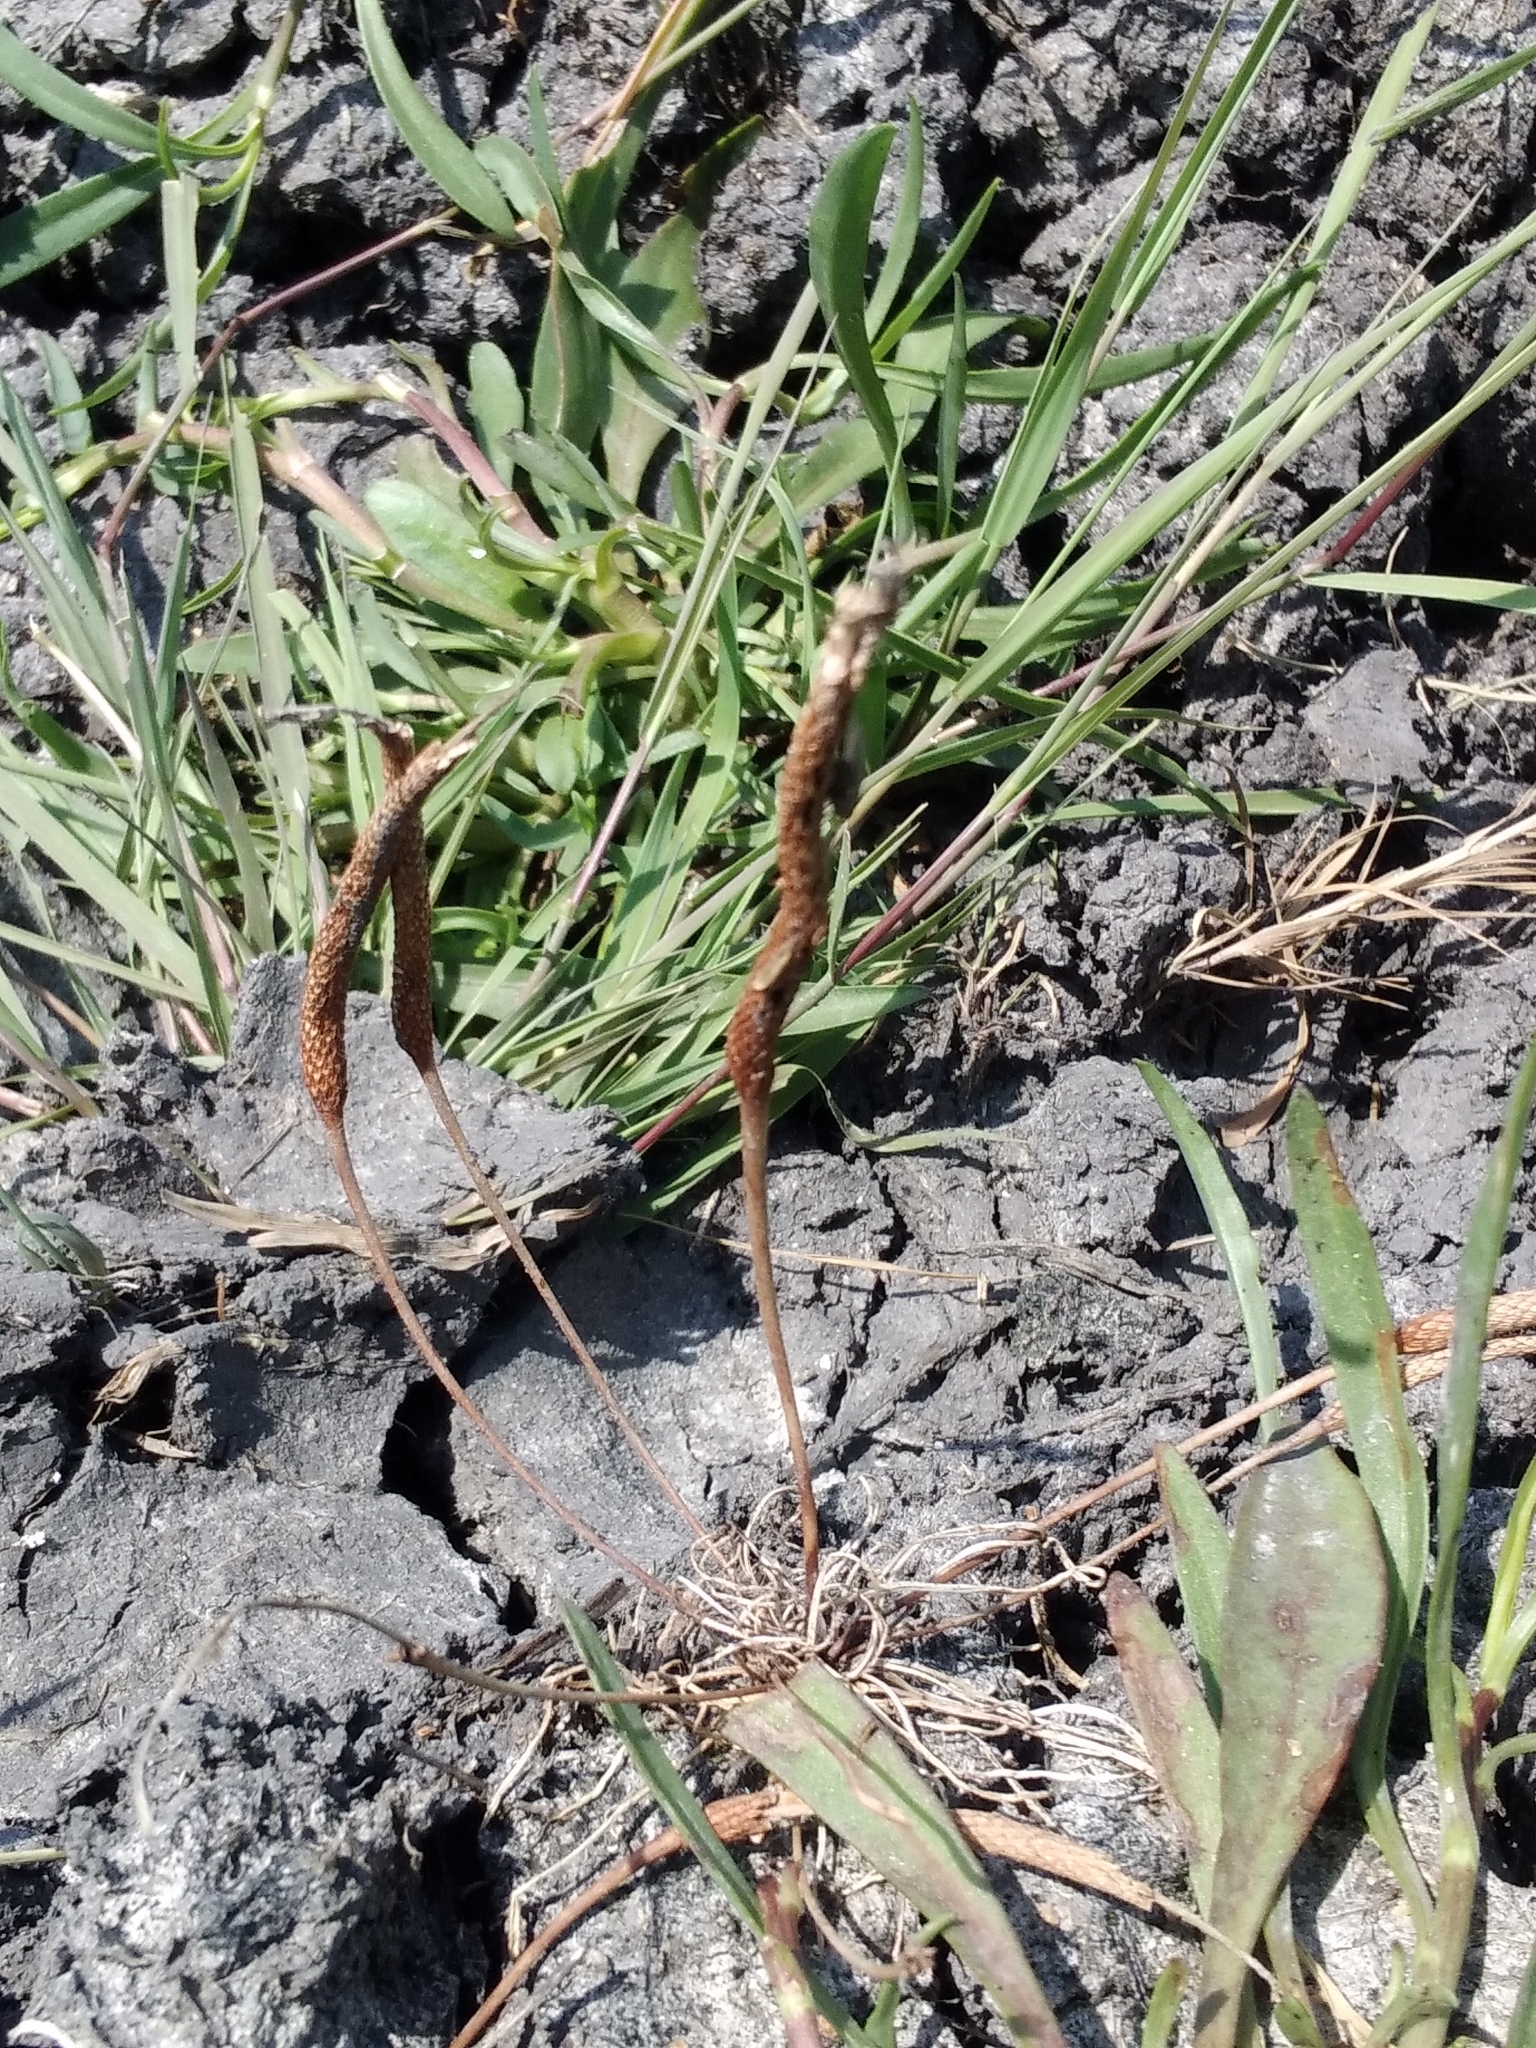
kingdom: Plantae
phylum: Tracheophyta
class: Magnoliopsida
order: Ranunculales
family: Ranunculaceae
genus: Myosurus
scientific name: Myosurus minimus
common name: Mousetail
